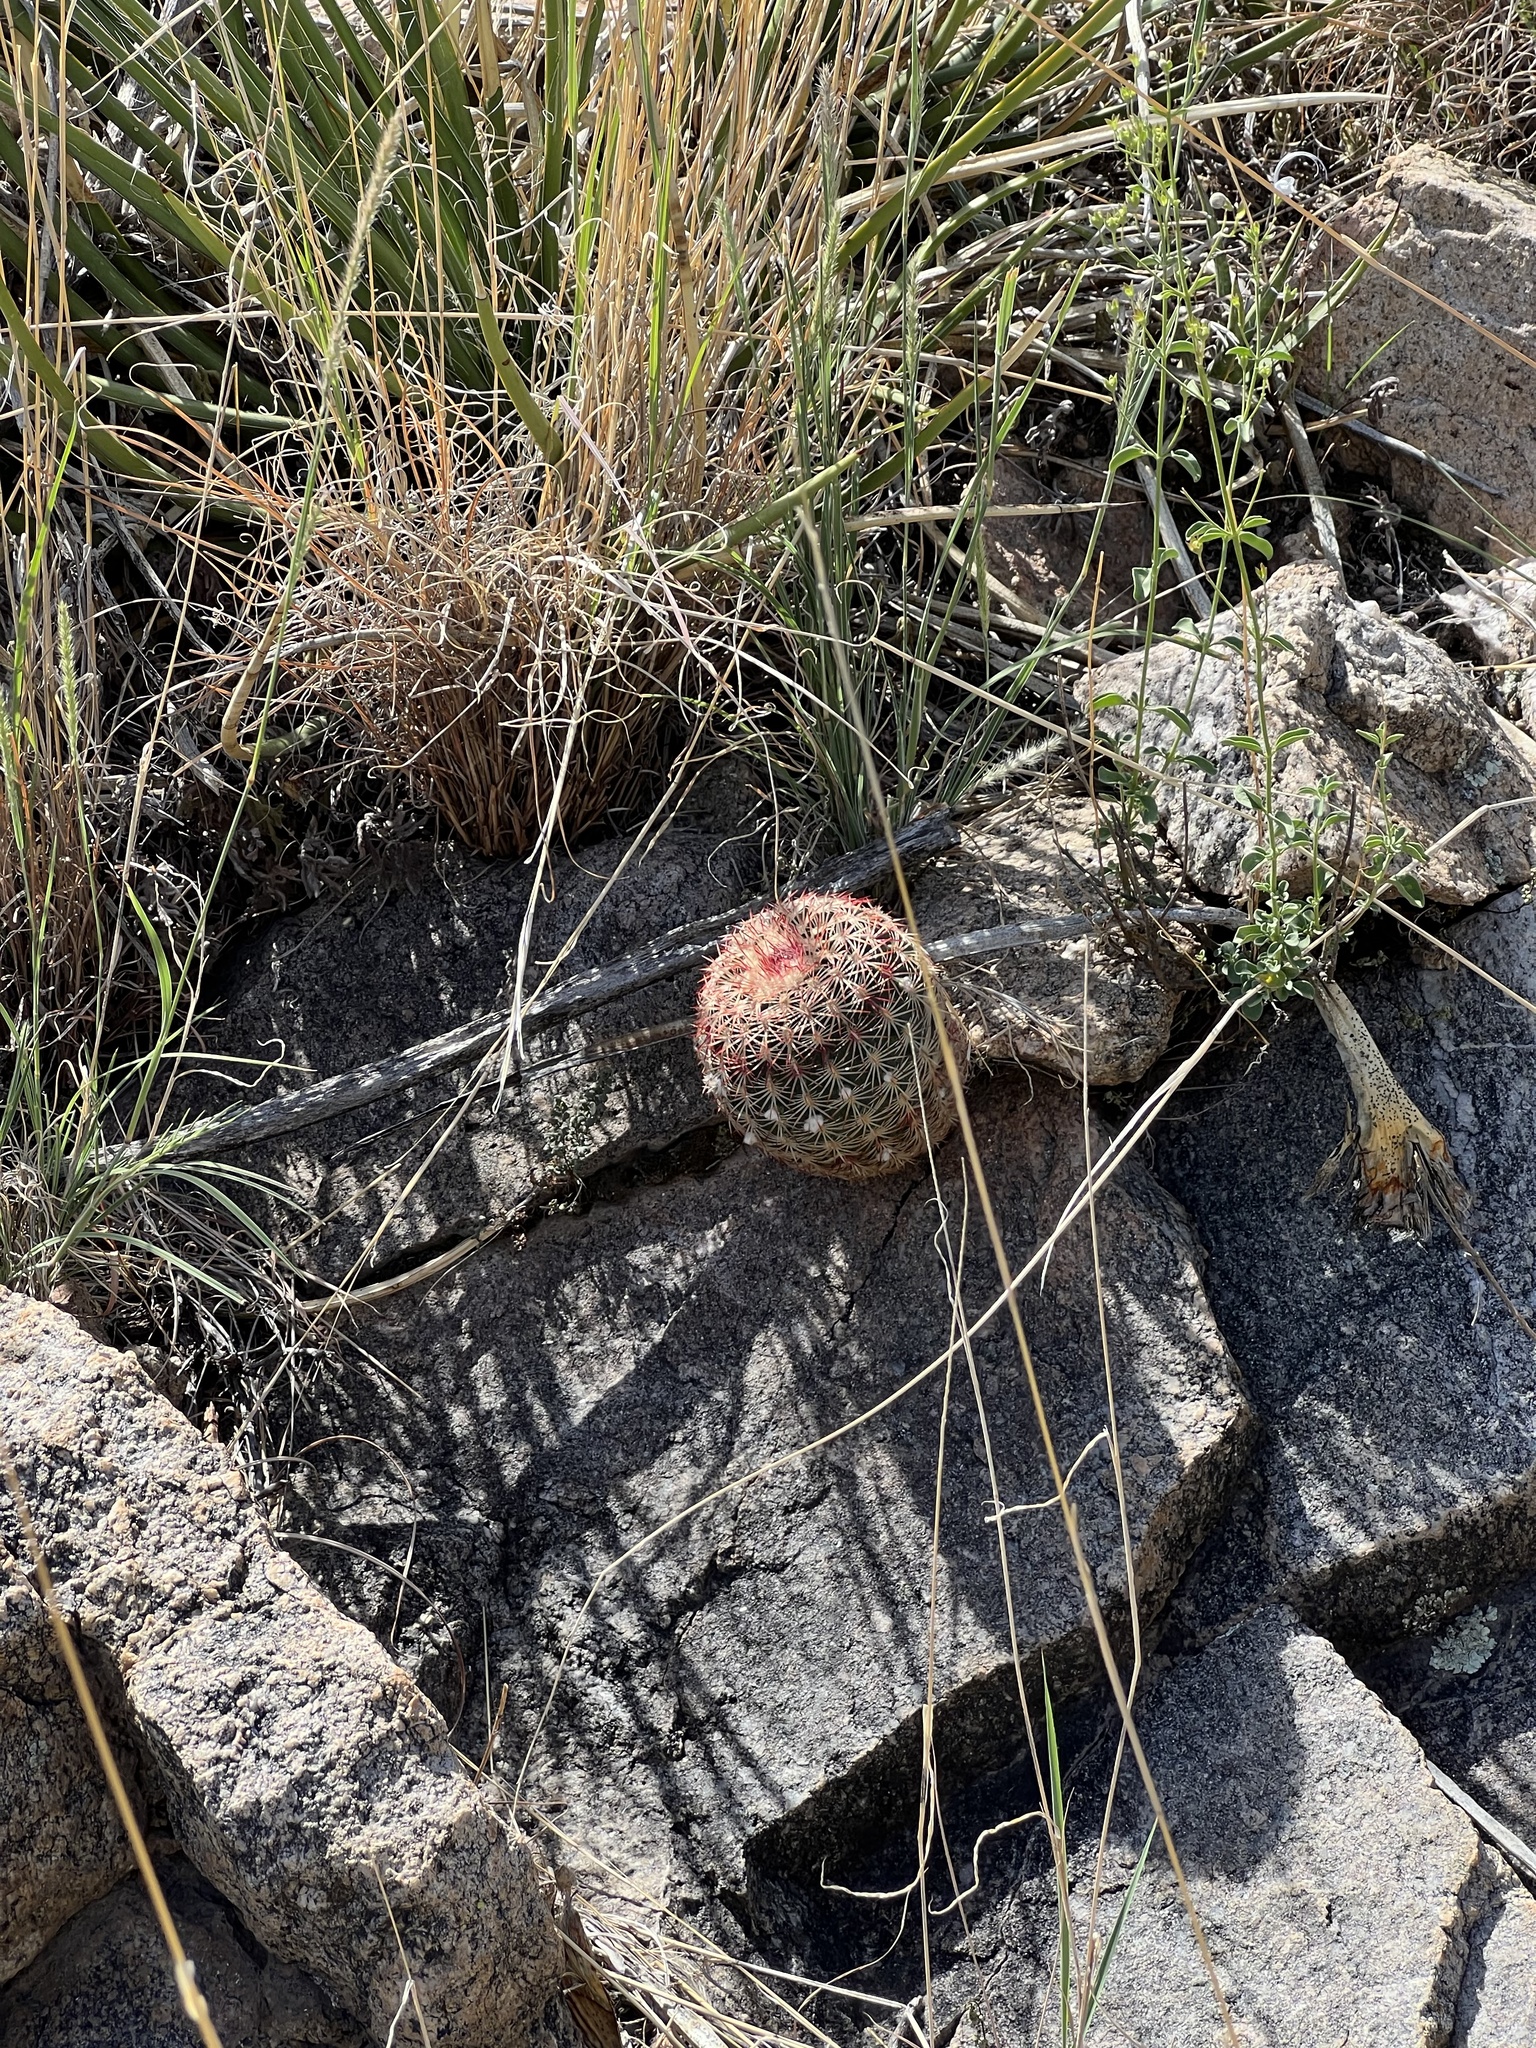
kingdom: Plantae
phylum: Tracheophyta
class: Magnoliopsida
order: Caryophyllales
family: Cactaceae
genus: Echinocereus
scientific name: Echinocereus rigidissimus
